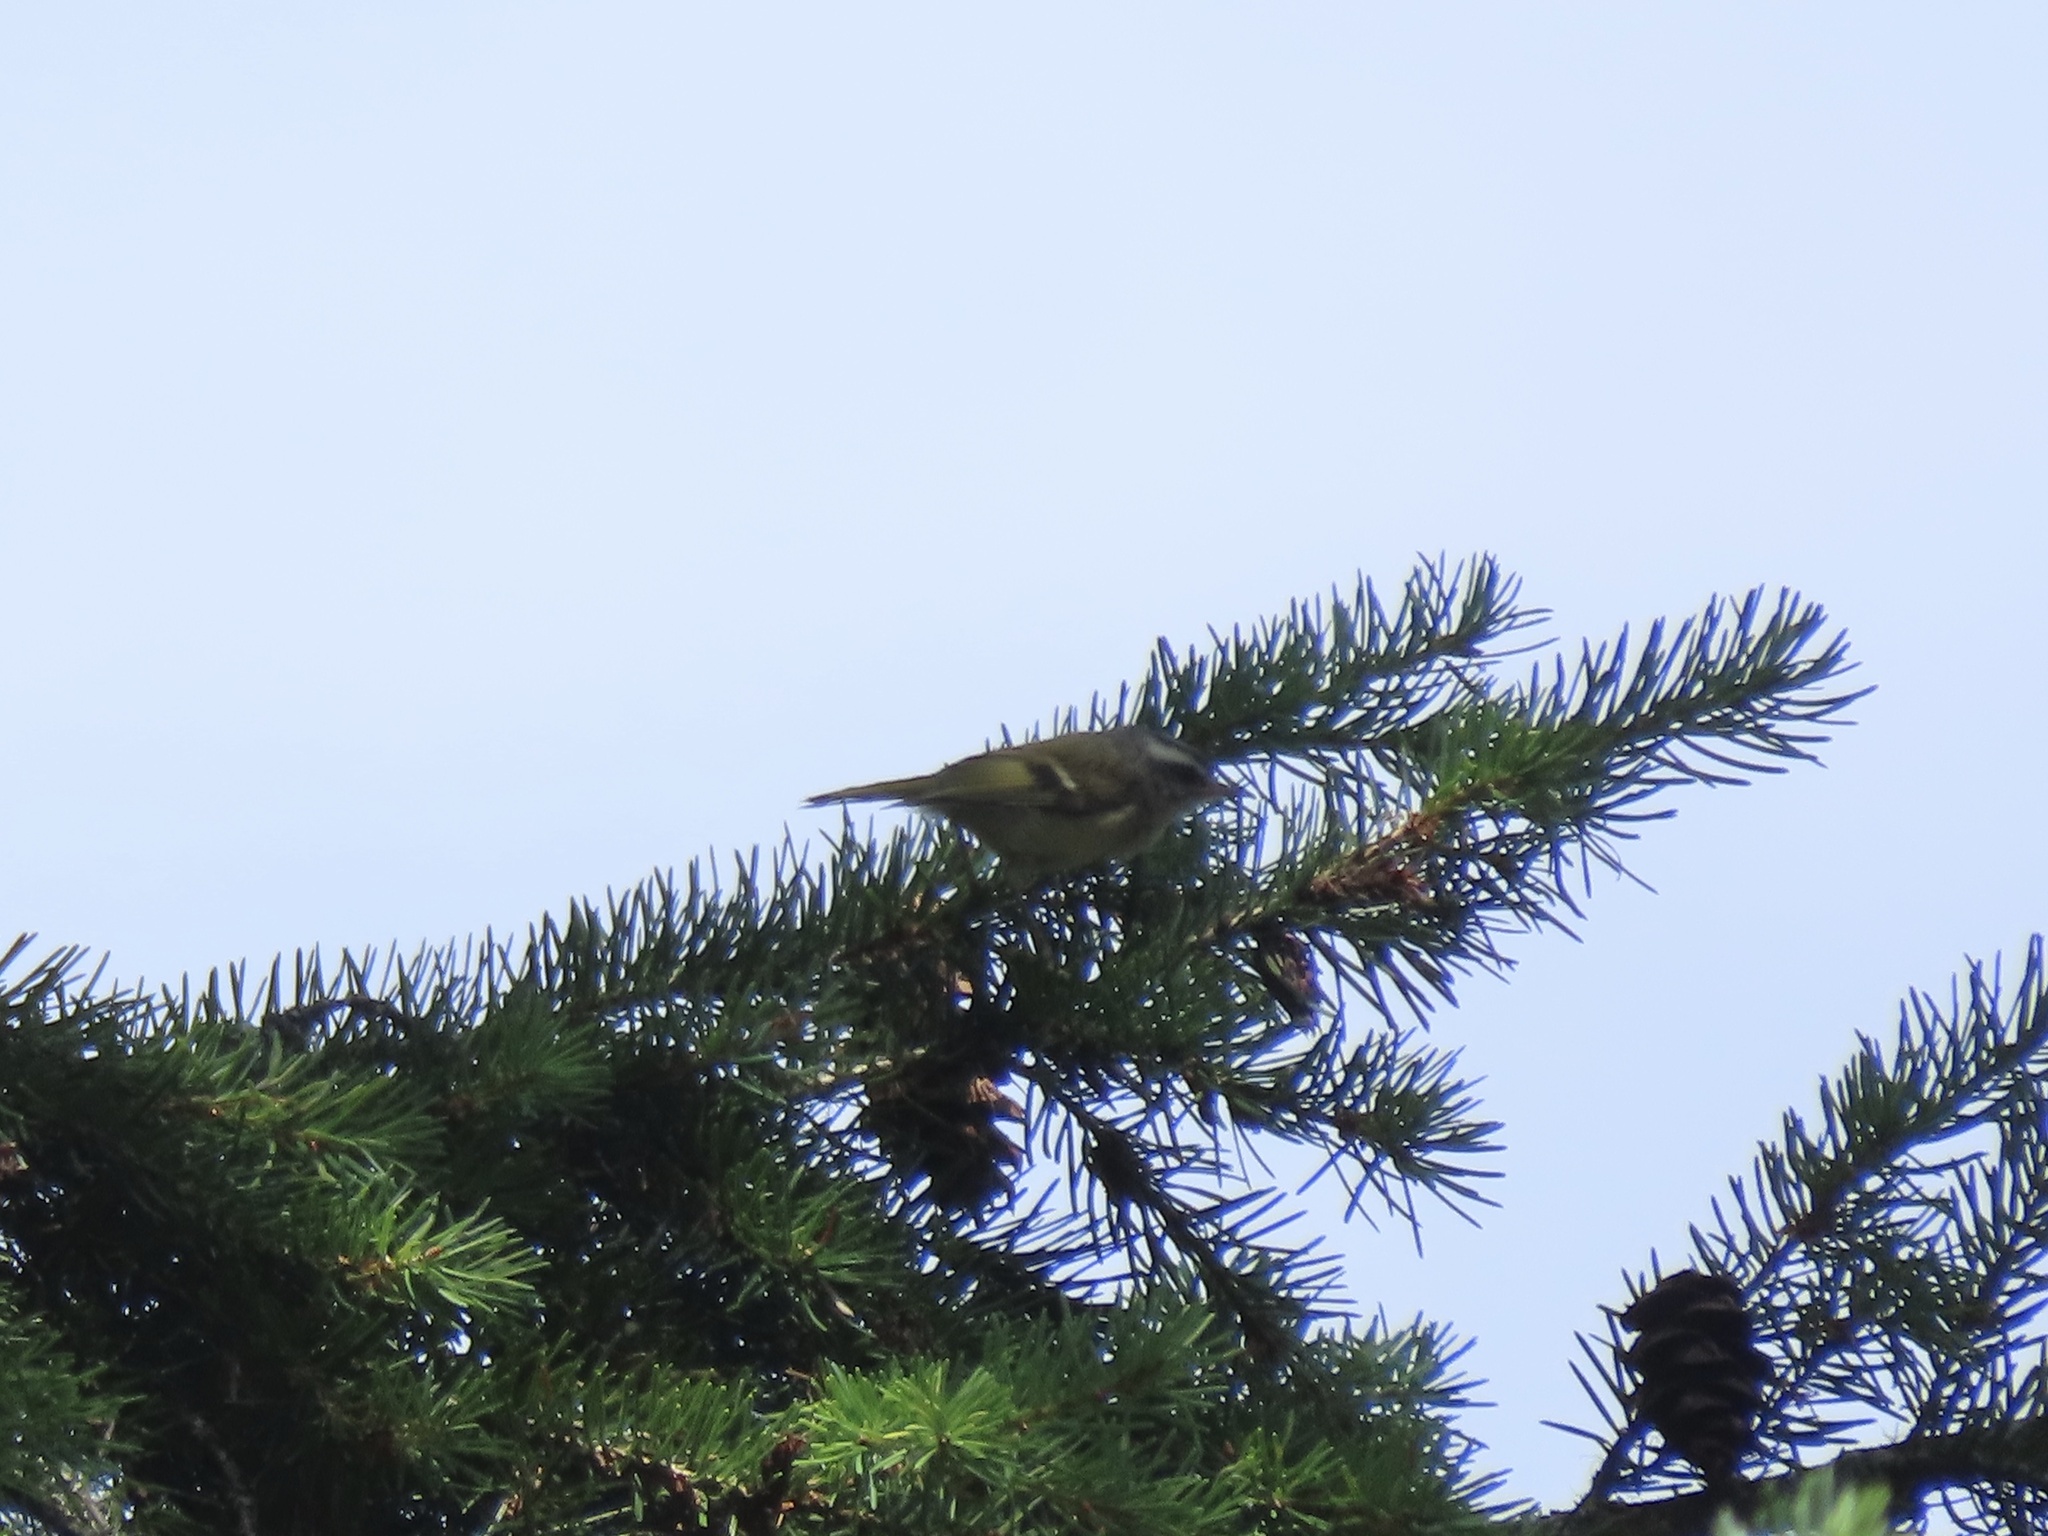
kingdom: Animalia
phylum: Chordata
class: Aves
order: Passeriformes
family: Regulidae
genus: Regulus
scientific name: Regulus satrapa
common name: Golden-crowned kinglet
